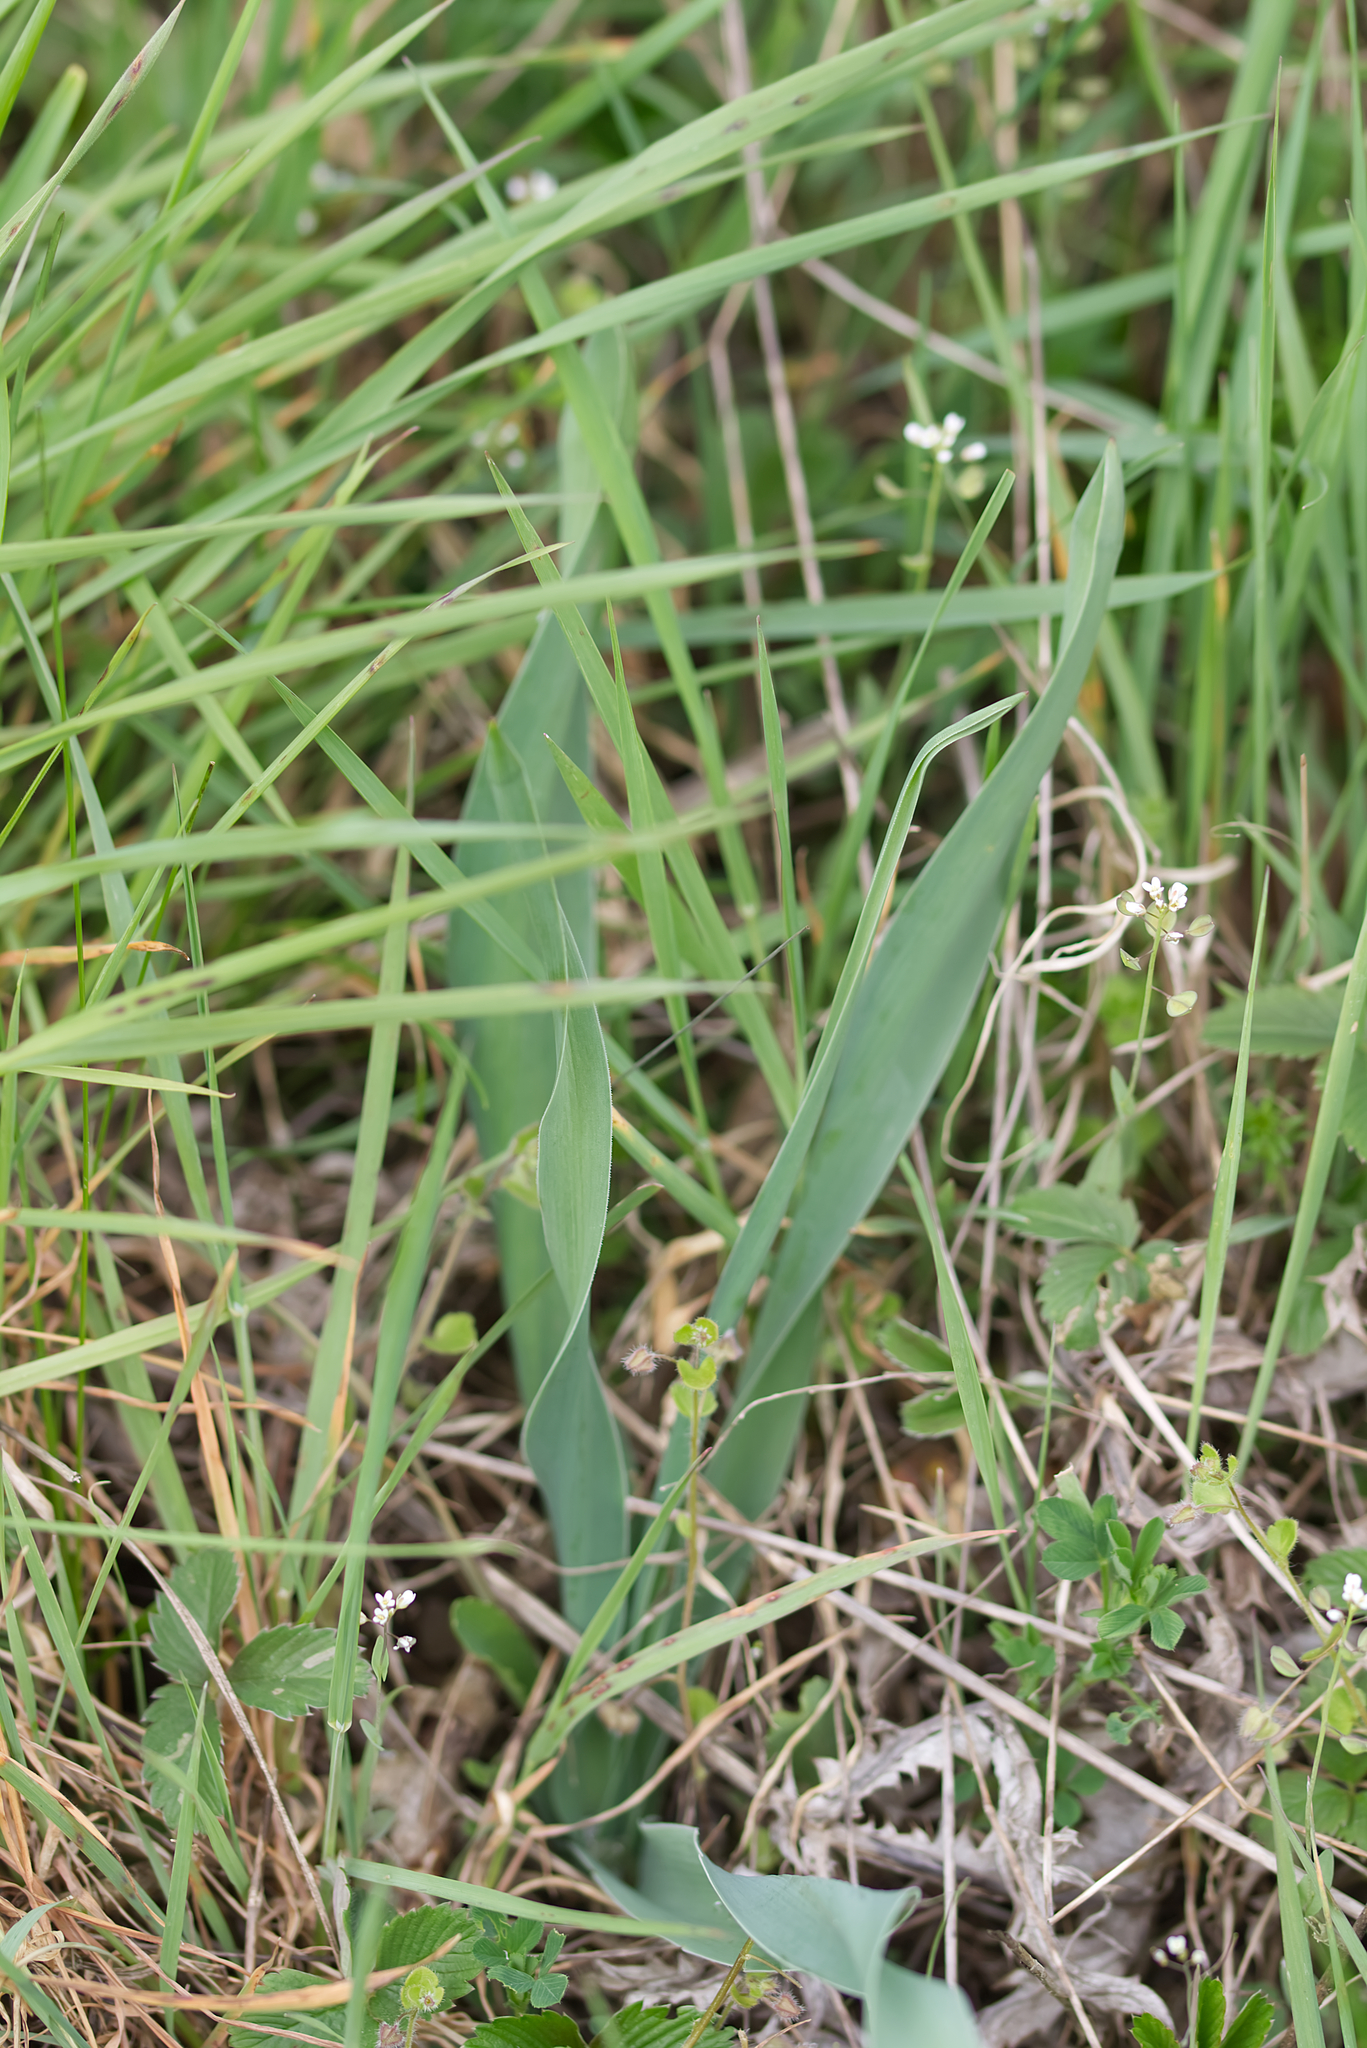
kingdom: Plantae
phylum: Tracheophyta
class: Liliopsida
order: Asparagales
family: Asparagaceae
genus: Muscari
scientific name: Muscari comosum
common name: Tassel hyacinth
